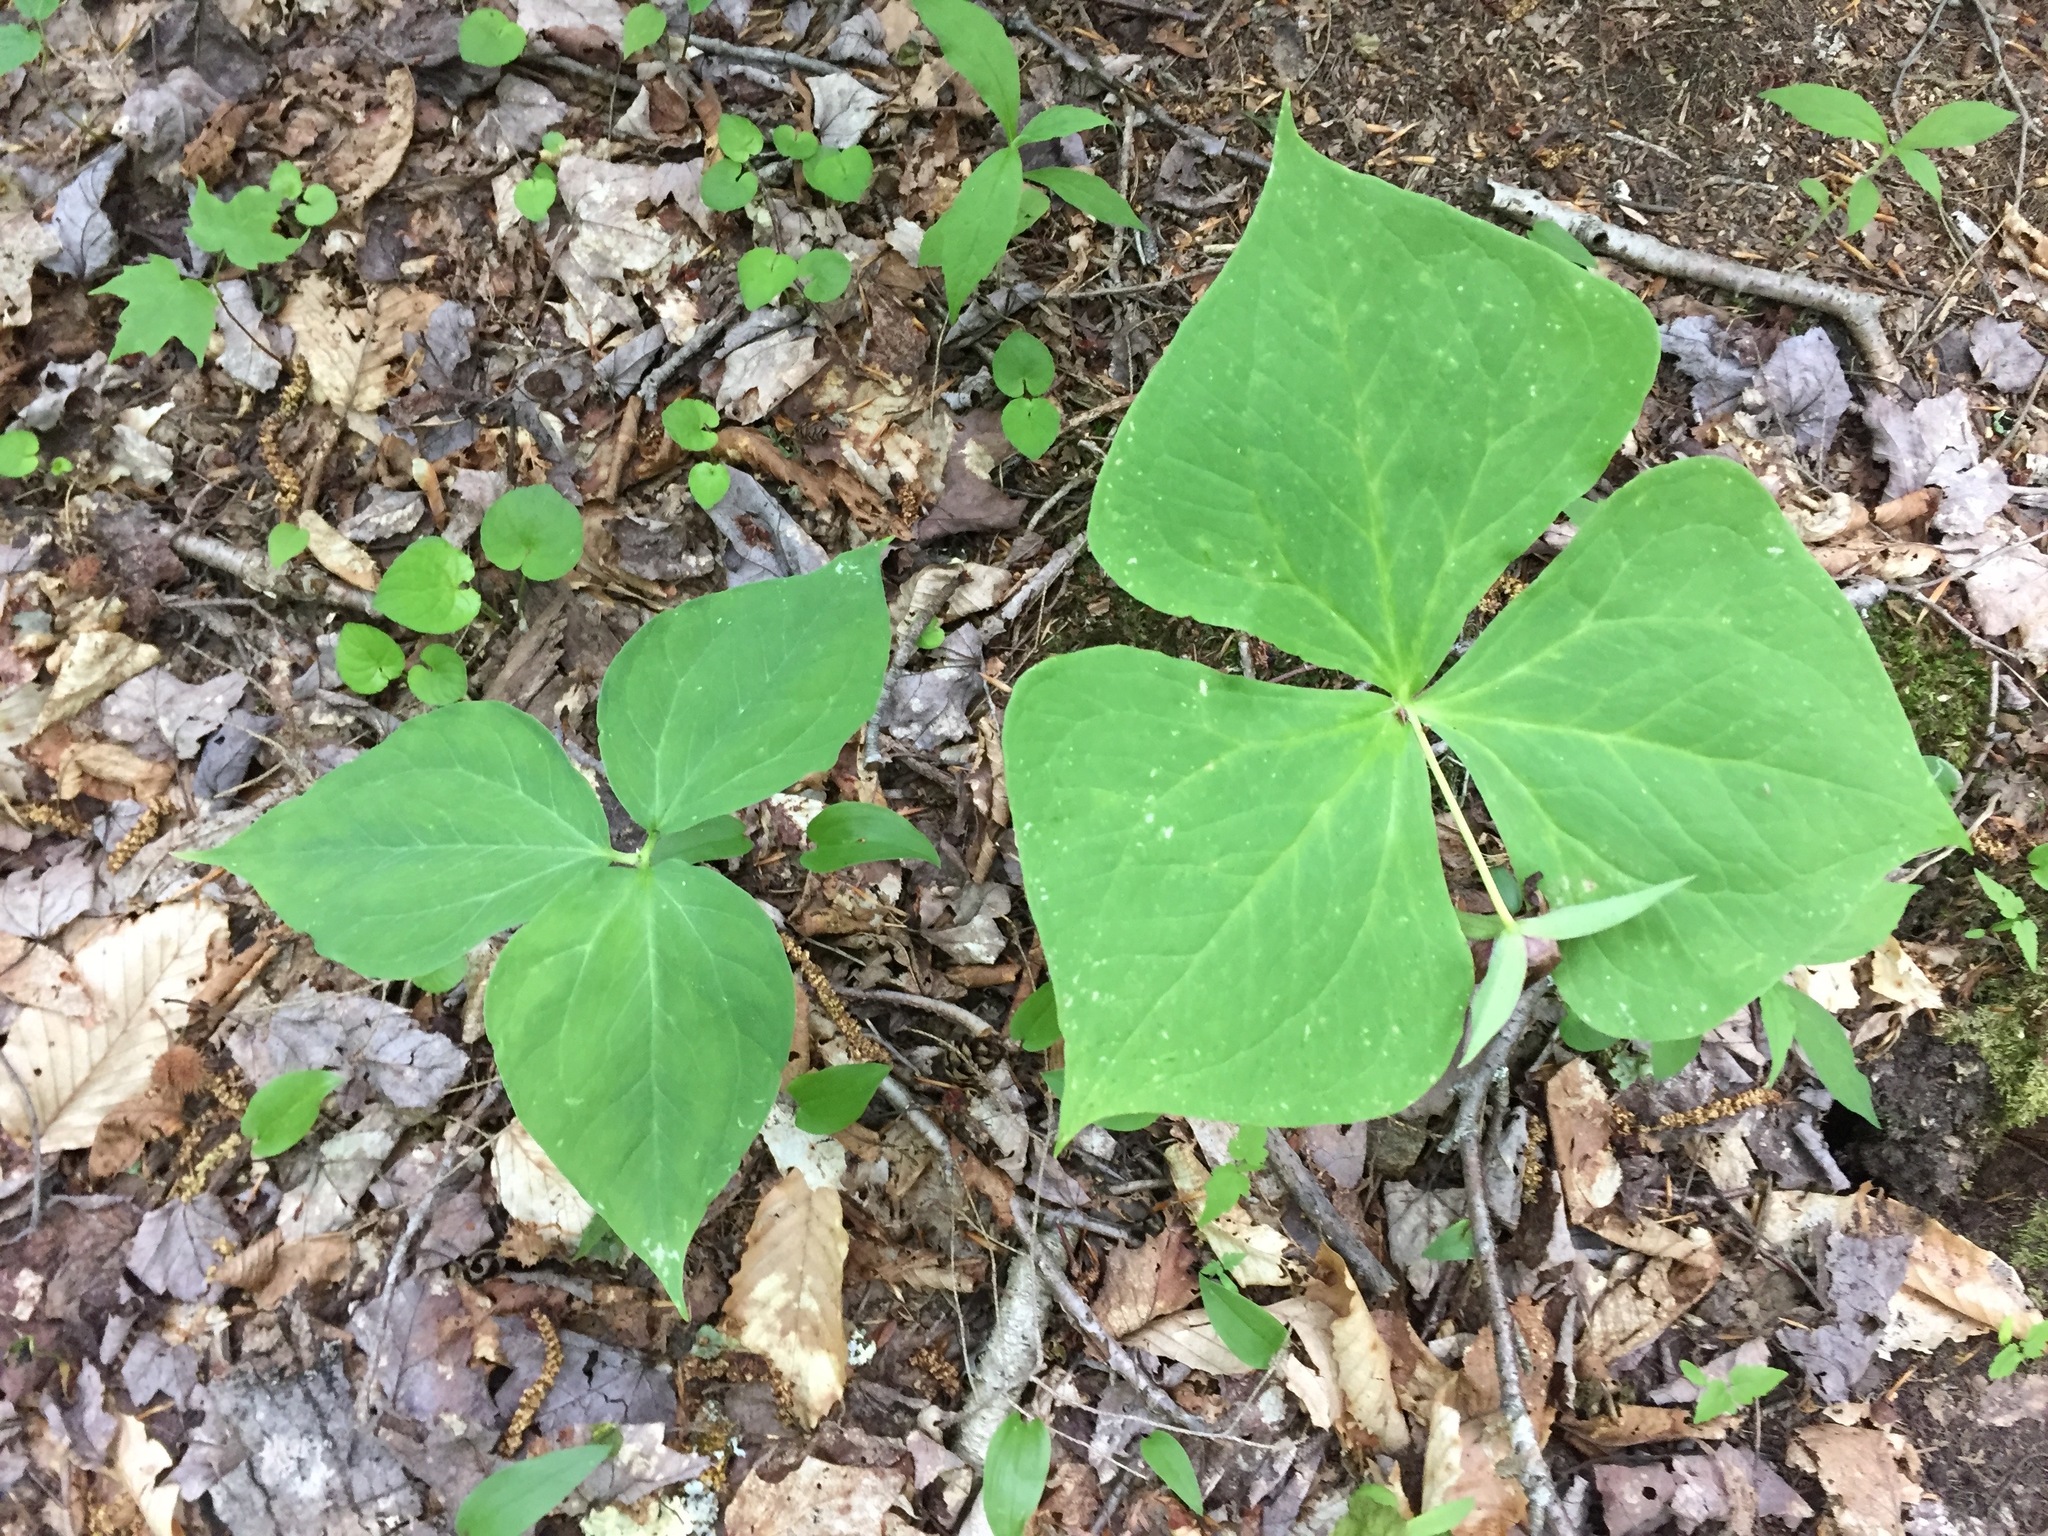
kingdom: Plantae
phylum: Tracheophyta
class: Liliopsida
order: Liliales
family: Melanthiaceae
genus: Trillium
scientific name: Trillium undulatum
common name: Paint trillium
